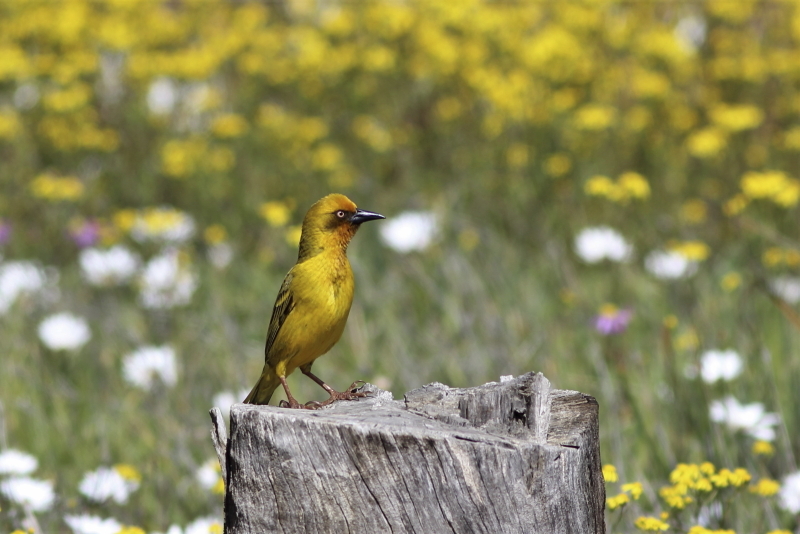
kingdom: Animalia
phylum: Chordata
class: Aves
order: Passeriformes
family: Ploceidae
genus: Ploceus
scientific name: Ploceus capensis
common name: Cape weaver
